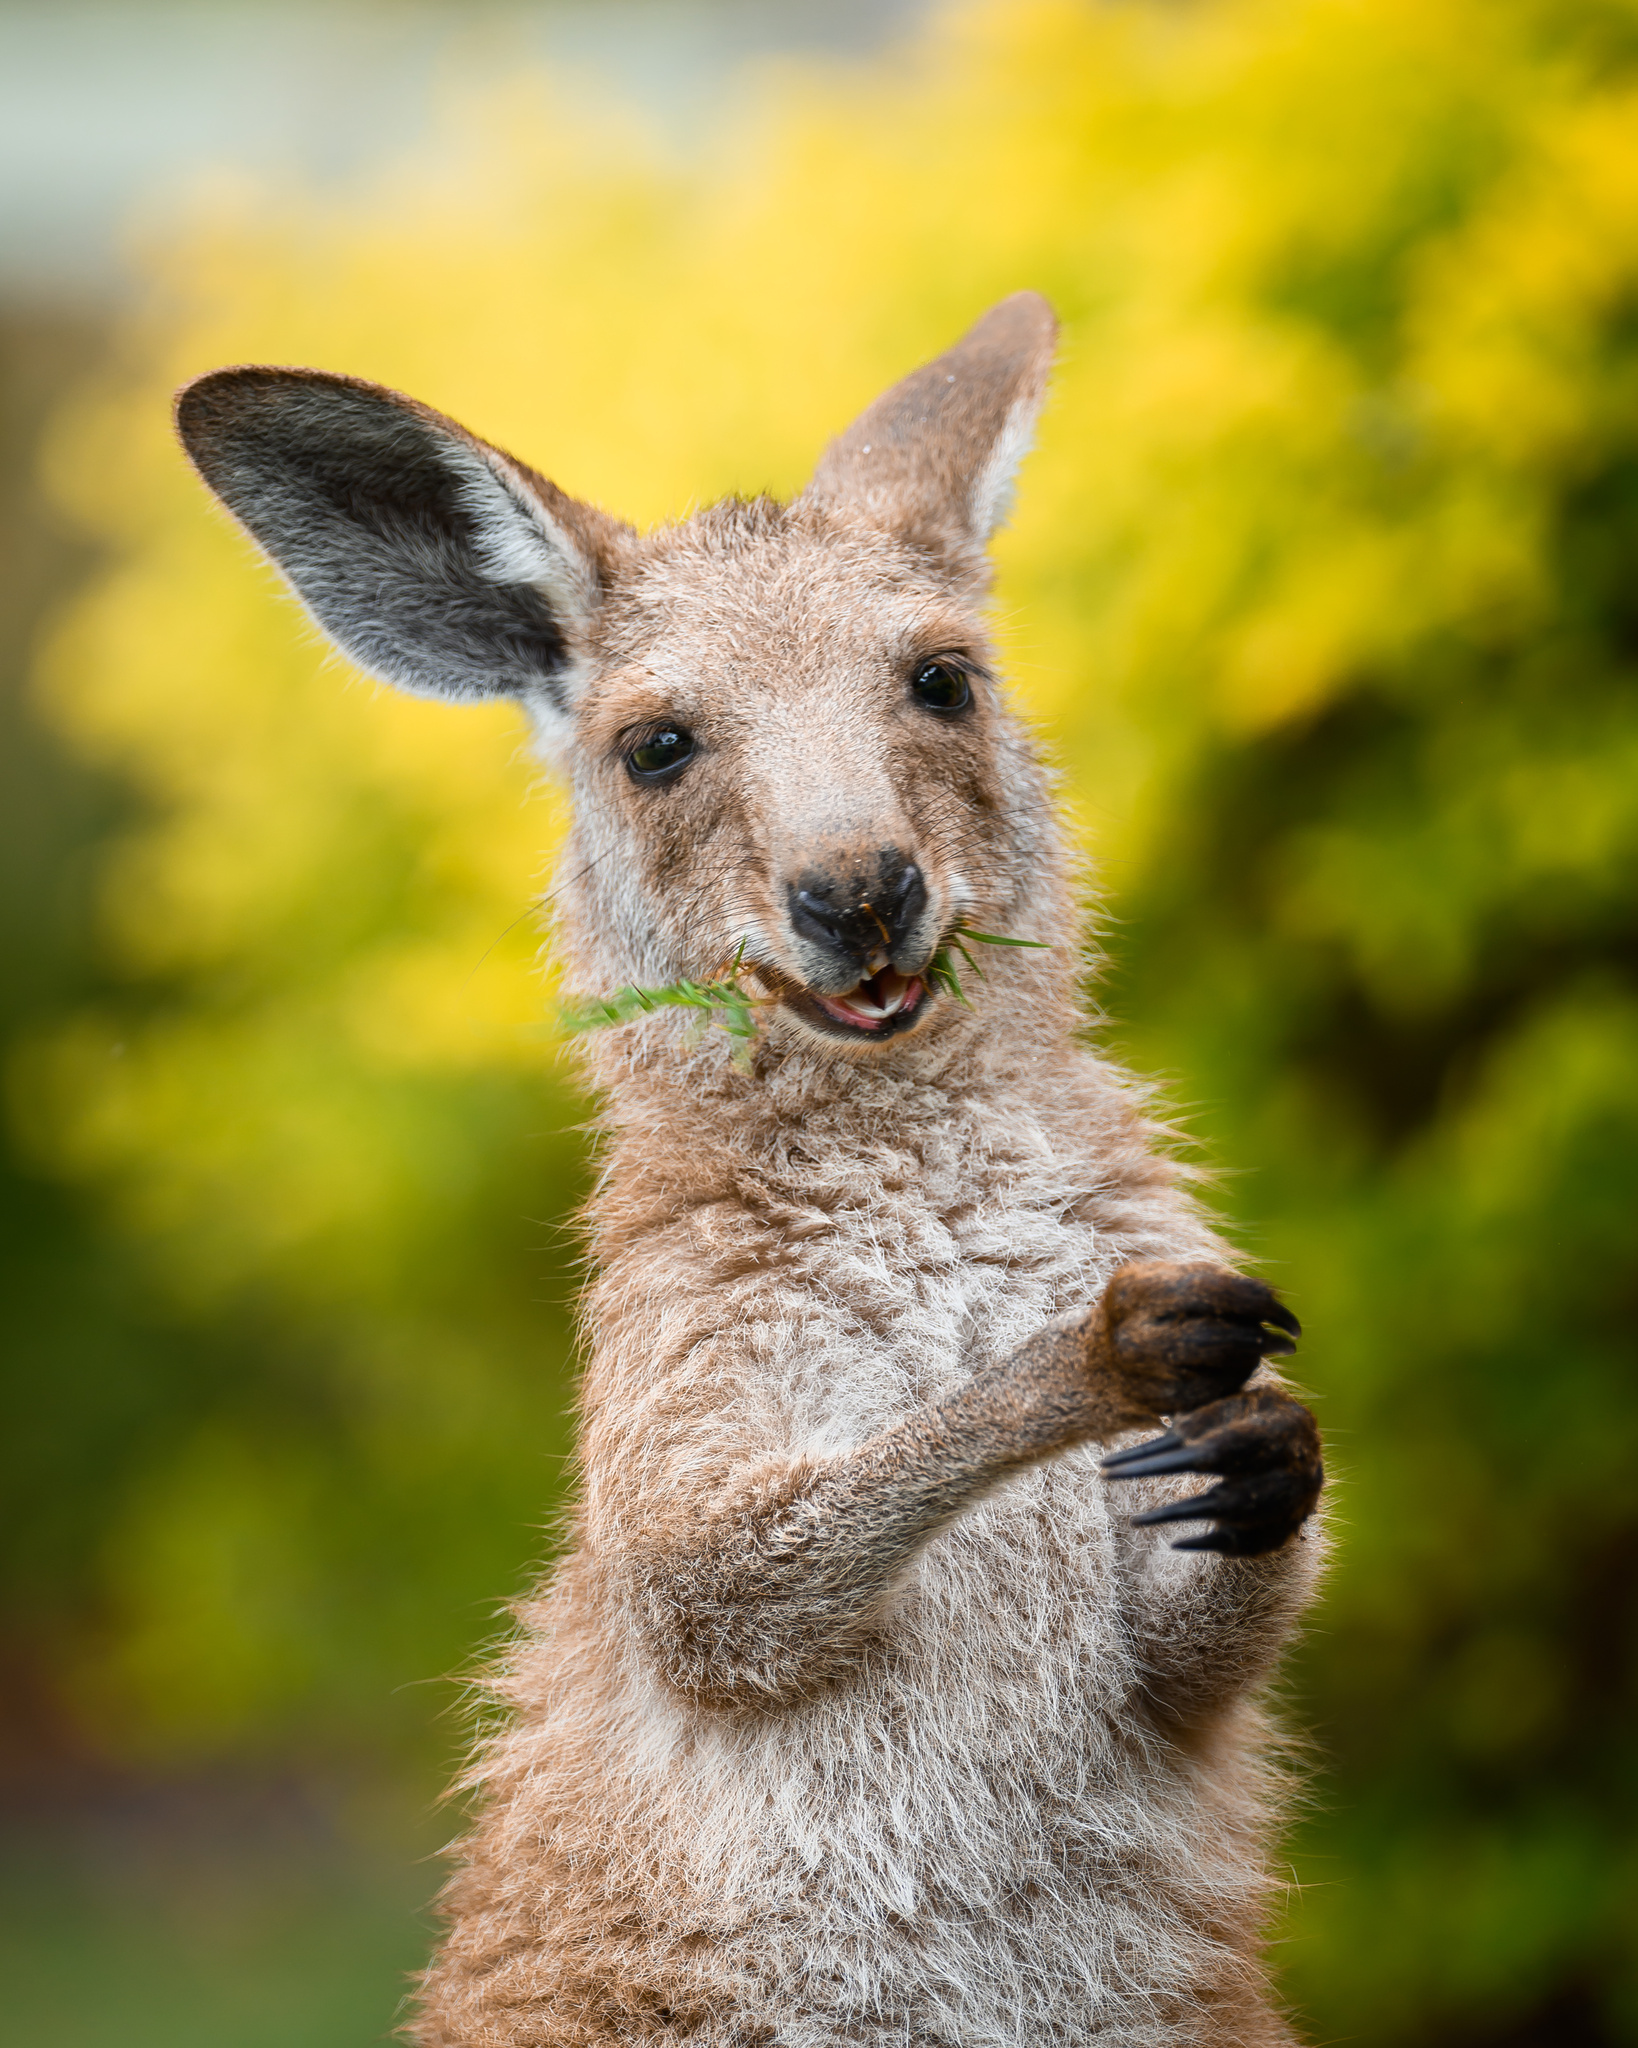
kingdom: Animalia
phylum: Chordata
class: Mammalia
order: Diprotodontia
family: Macropodidae
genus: Macropus
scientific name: Macropus giganteus
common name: Eastern grey kangaroo
